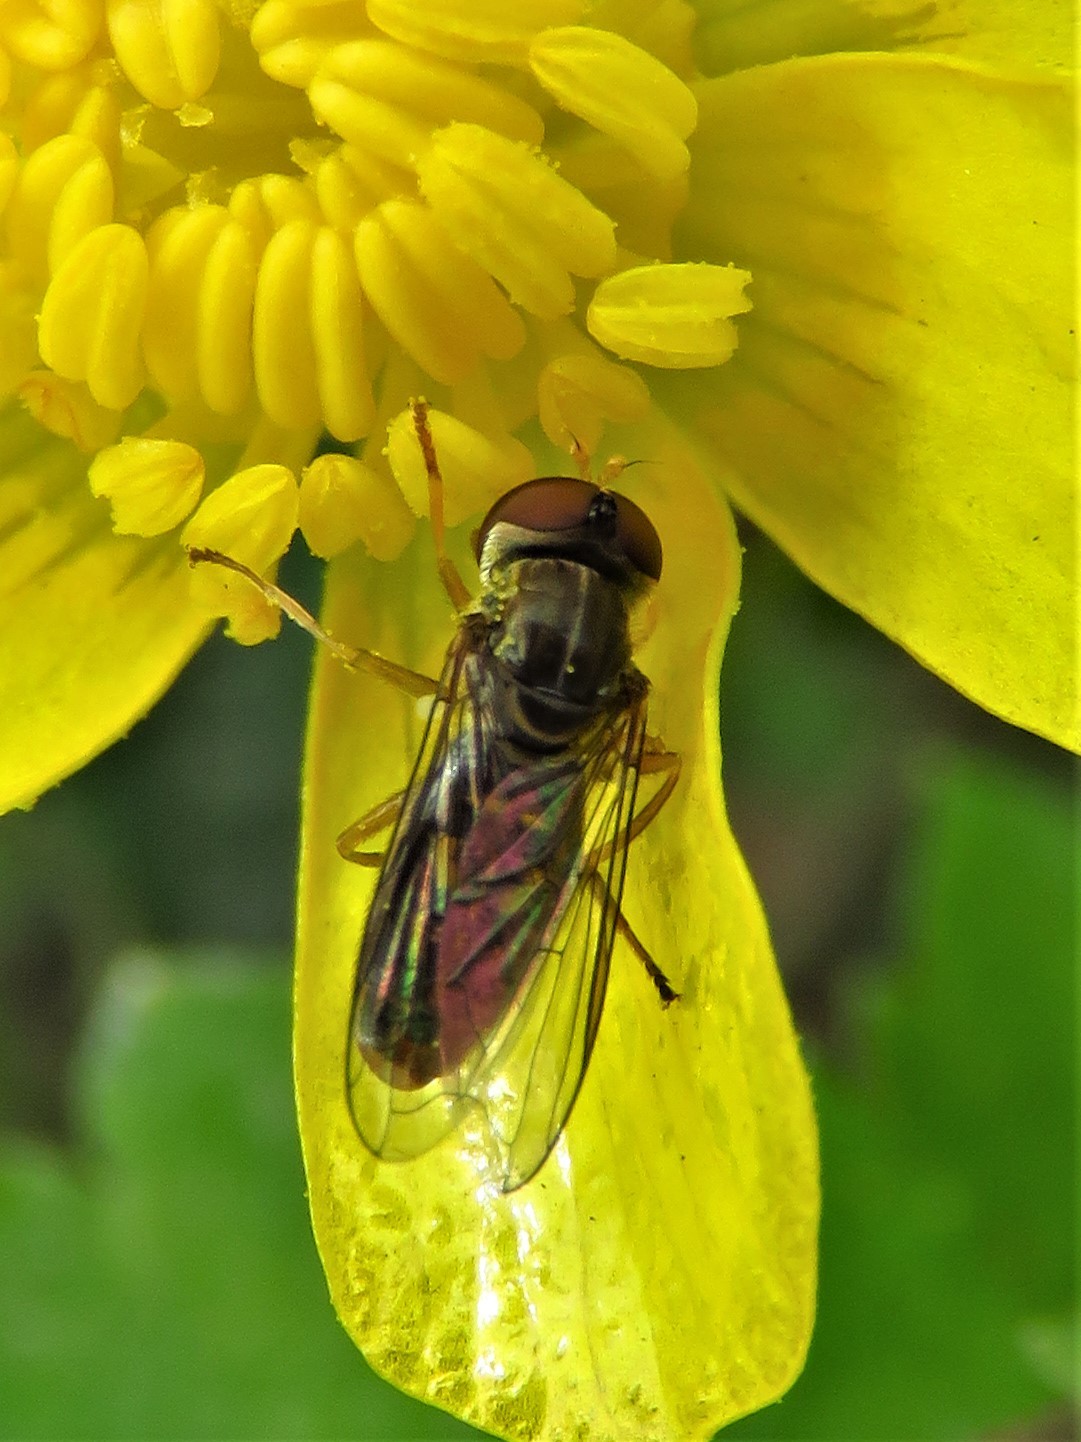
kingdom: Animalia
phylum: Arthropoda
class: Insecta
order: Diptera
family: Syrphidae
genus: Toxomerus
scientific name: Toxomerus marginatus
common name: Syrphid fly
